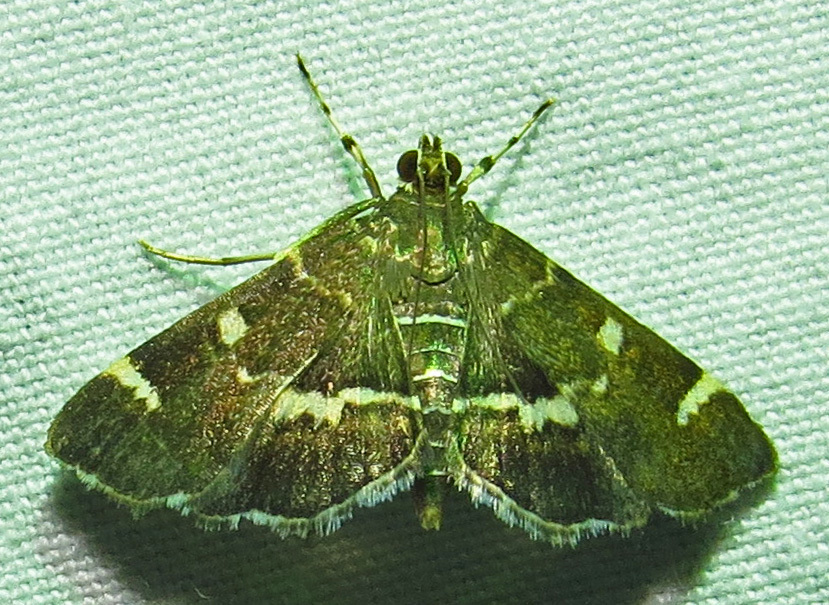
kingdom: Animalia
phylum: Arthropoda
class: Insecta
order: Lepidoptera
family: Crambidae
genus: Hymenia
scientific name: Hymenia perspectalis
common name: Spotted beet webworm
